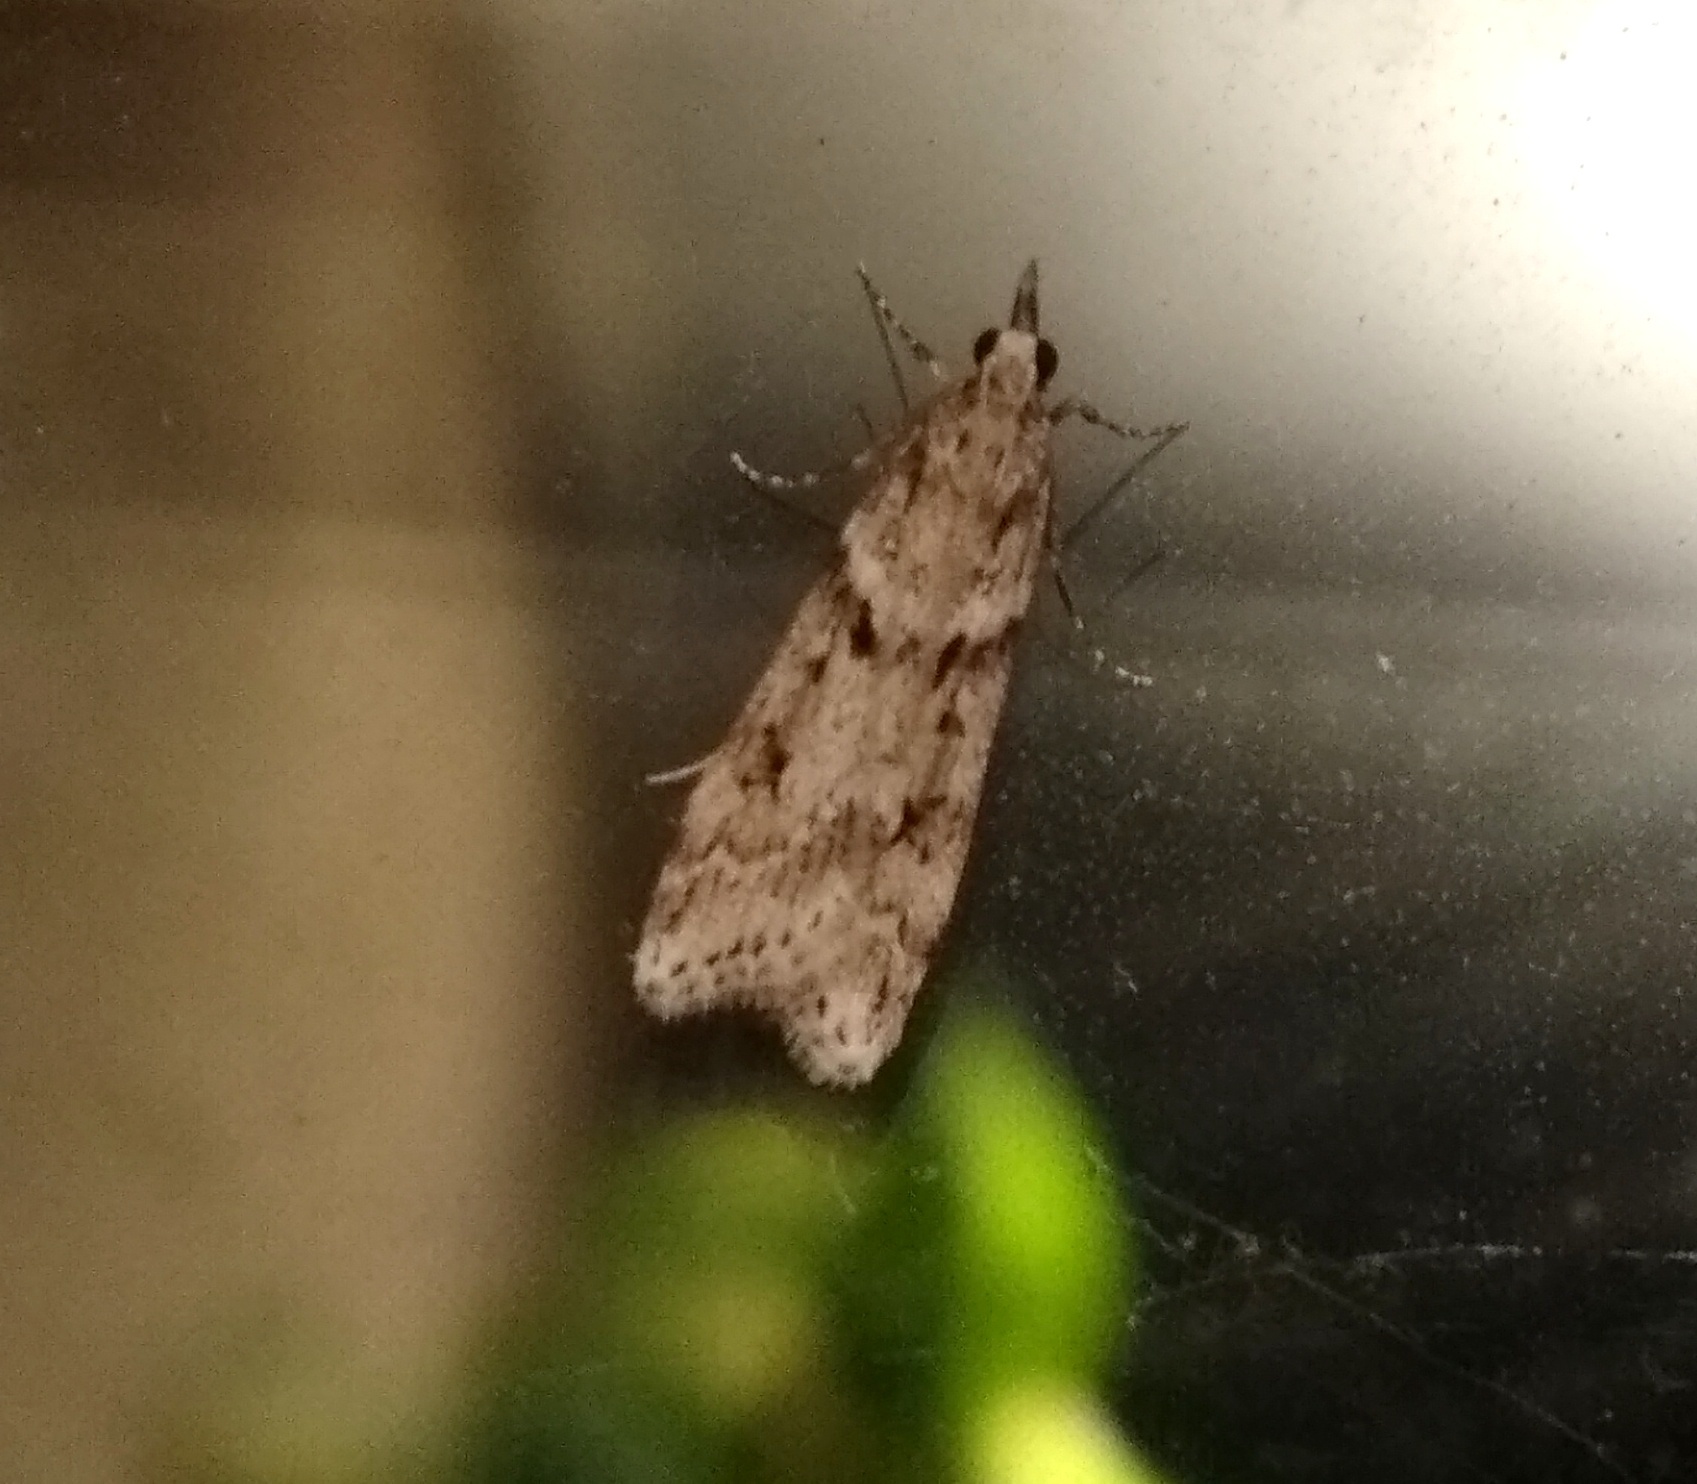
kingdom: Animalia
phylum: Arthropoda
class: Insecta
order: Lepidoptera
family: Crambidae
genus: Eudonia
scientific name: Eudonia angustea
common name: Narrow-winged grey
